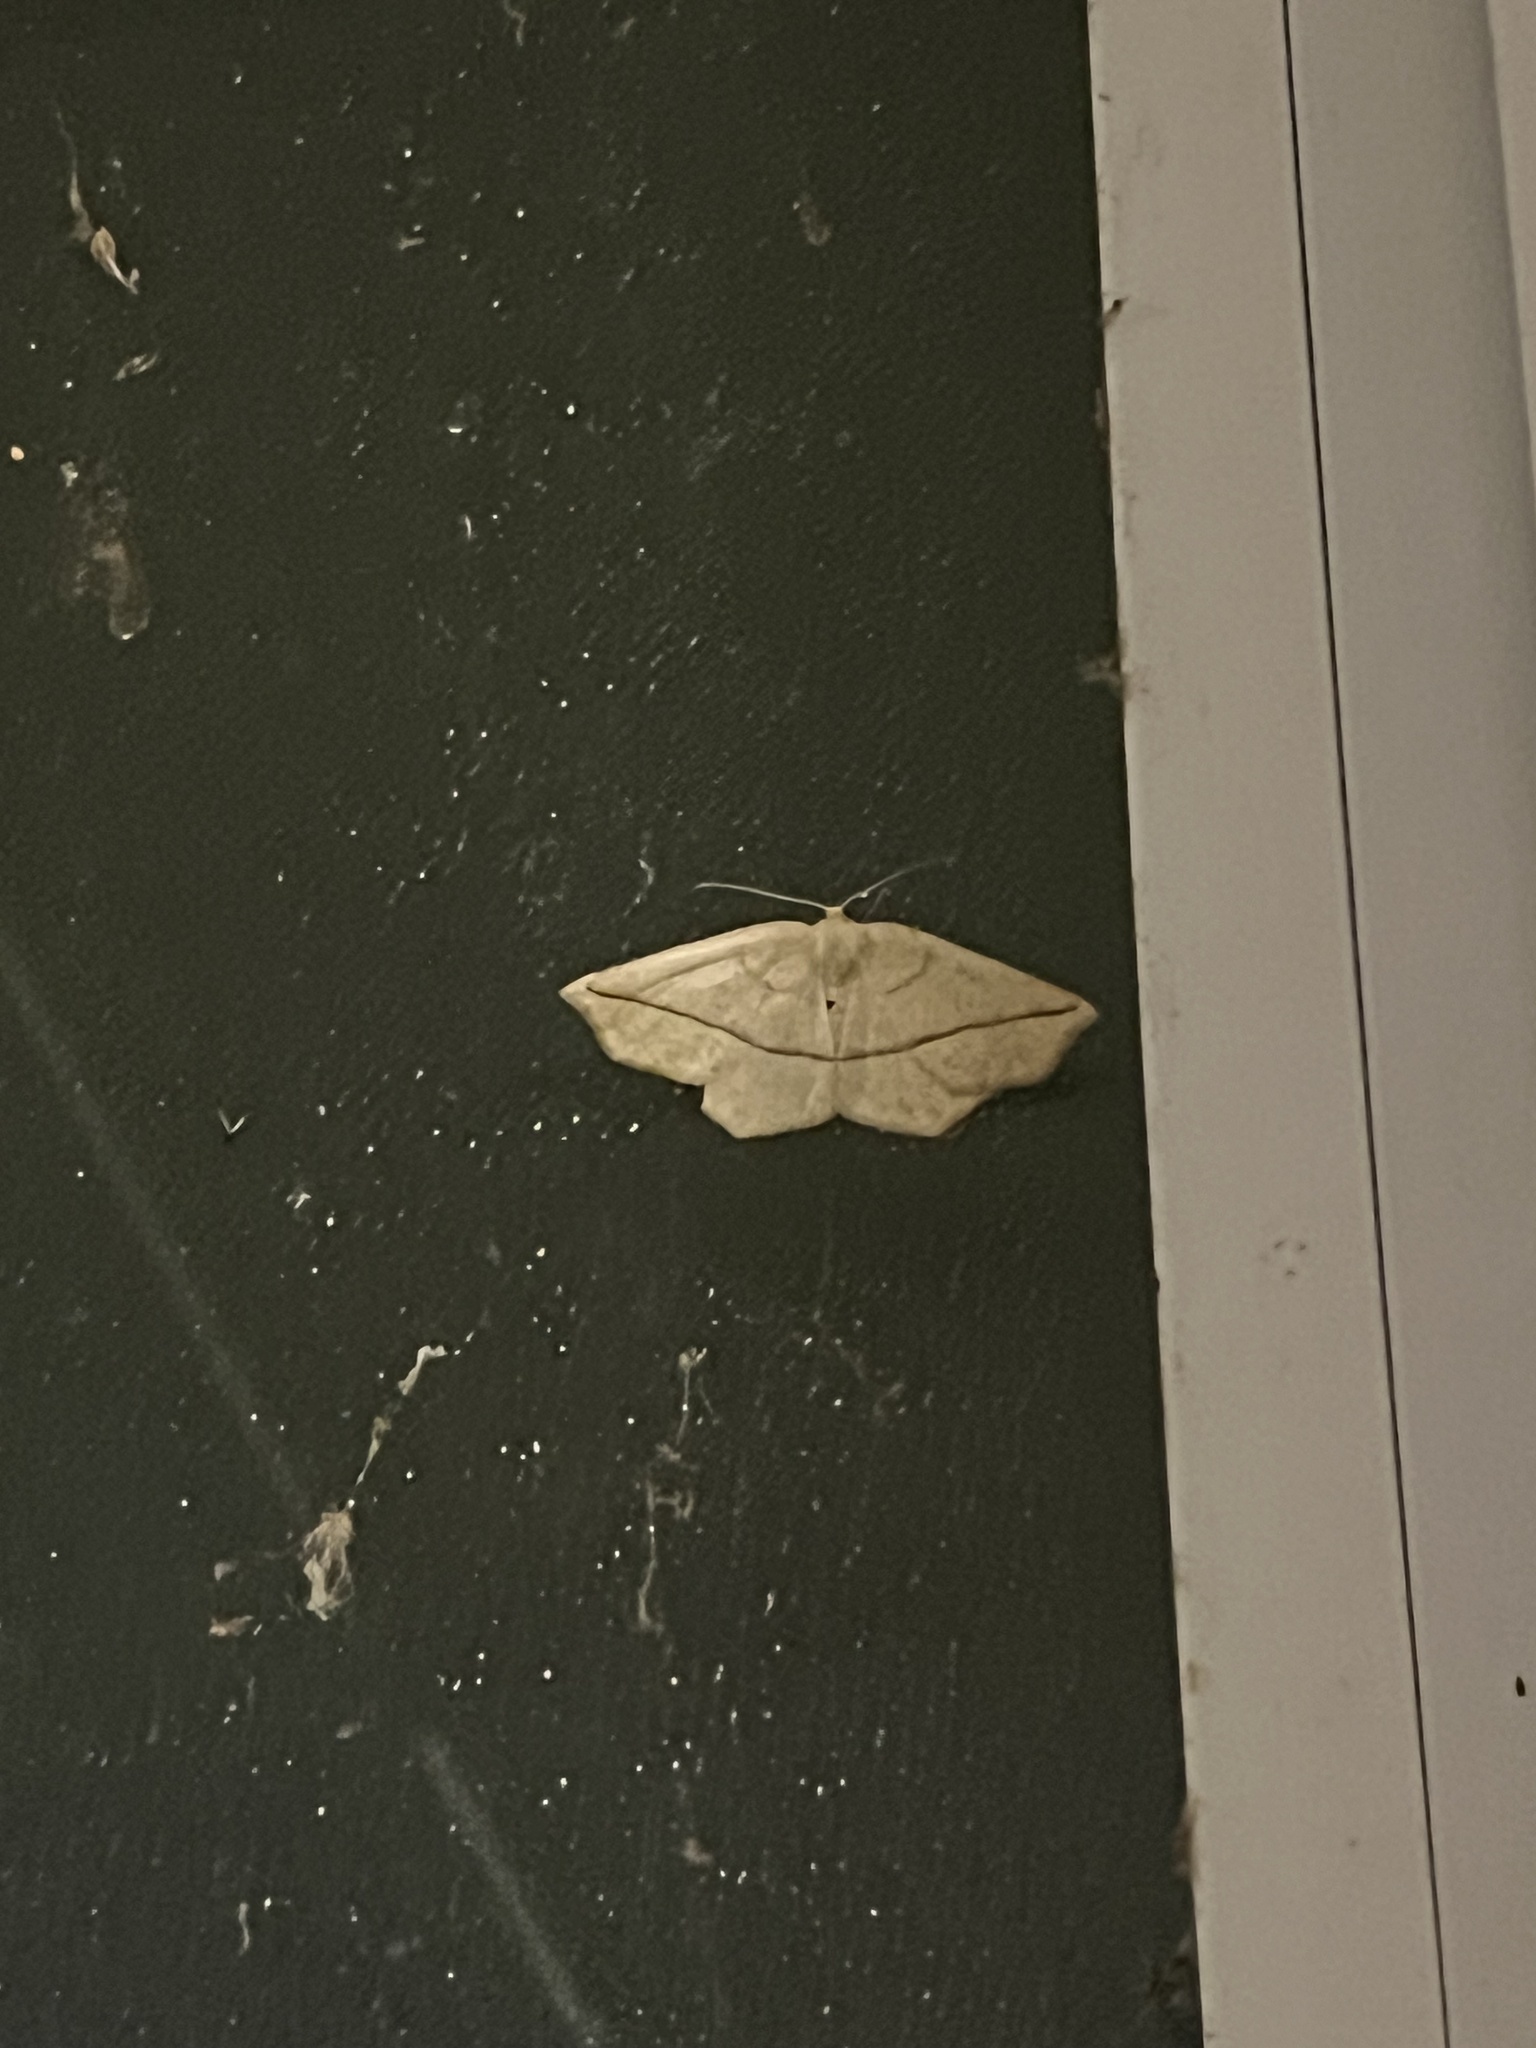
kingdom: Animalia
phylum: Arthropoda
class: Insecta
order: Lepidoptera
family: Geometridae
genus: Eusarca
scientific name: Eusarca confusaria
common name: Confused eusarca
